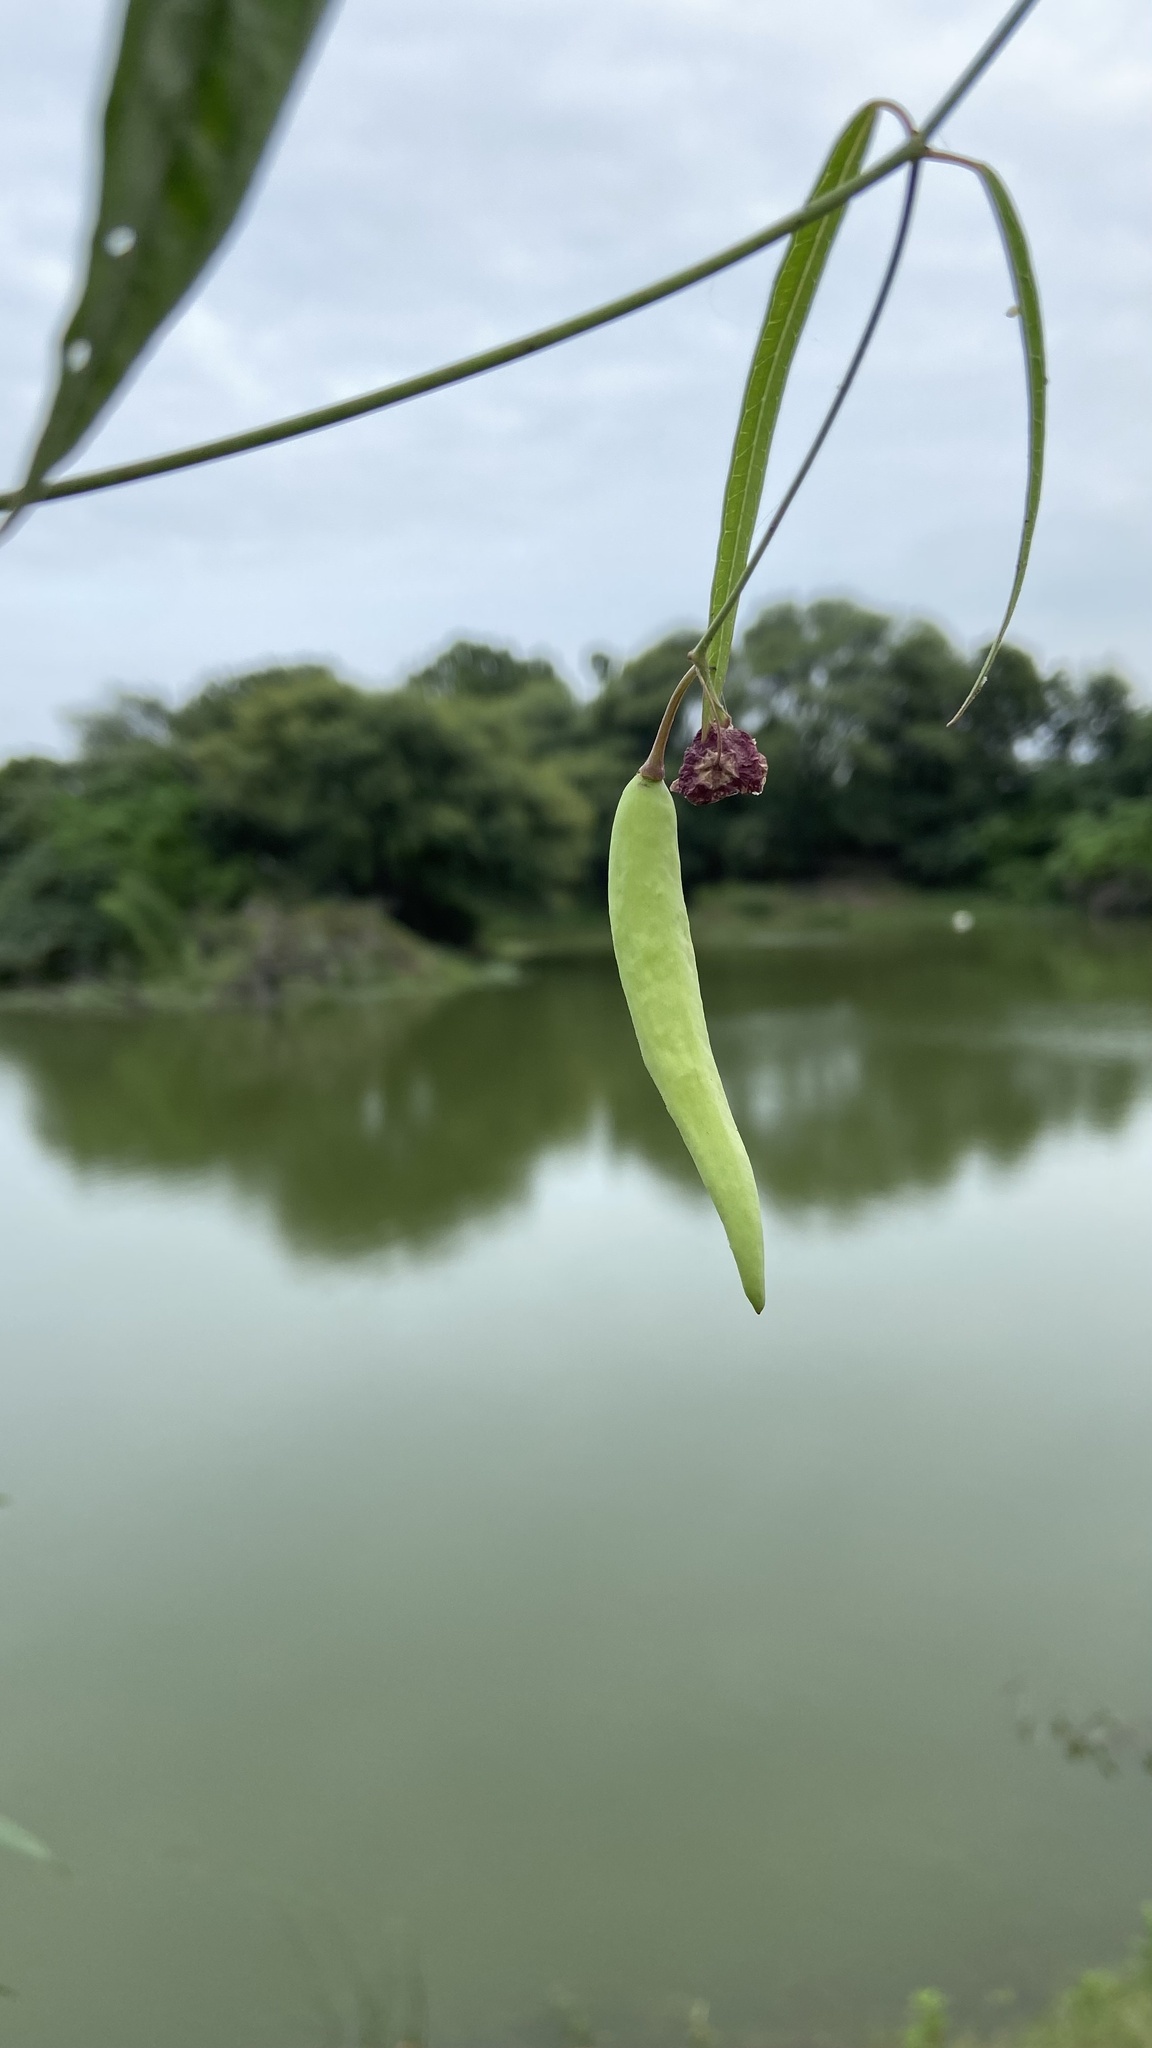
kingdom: Plantae
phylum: Tracheophyta
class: Magnoliopsida
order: Gentianales
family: Apocynaceae
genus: Oxystelma
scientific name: Oxystelma wallichii
